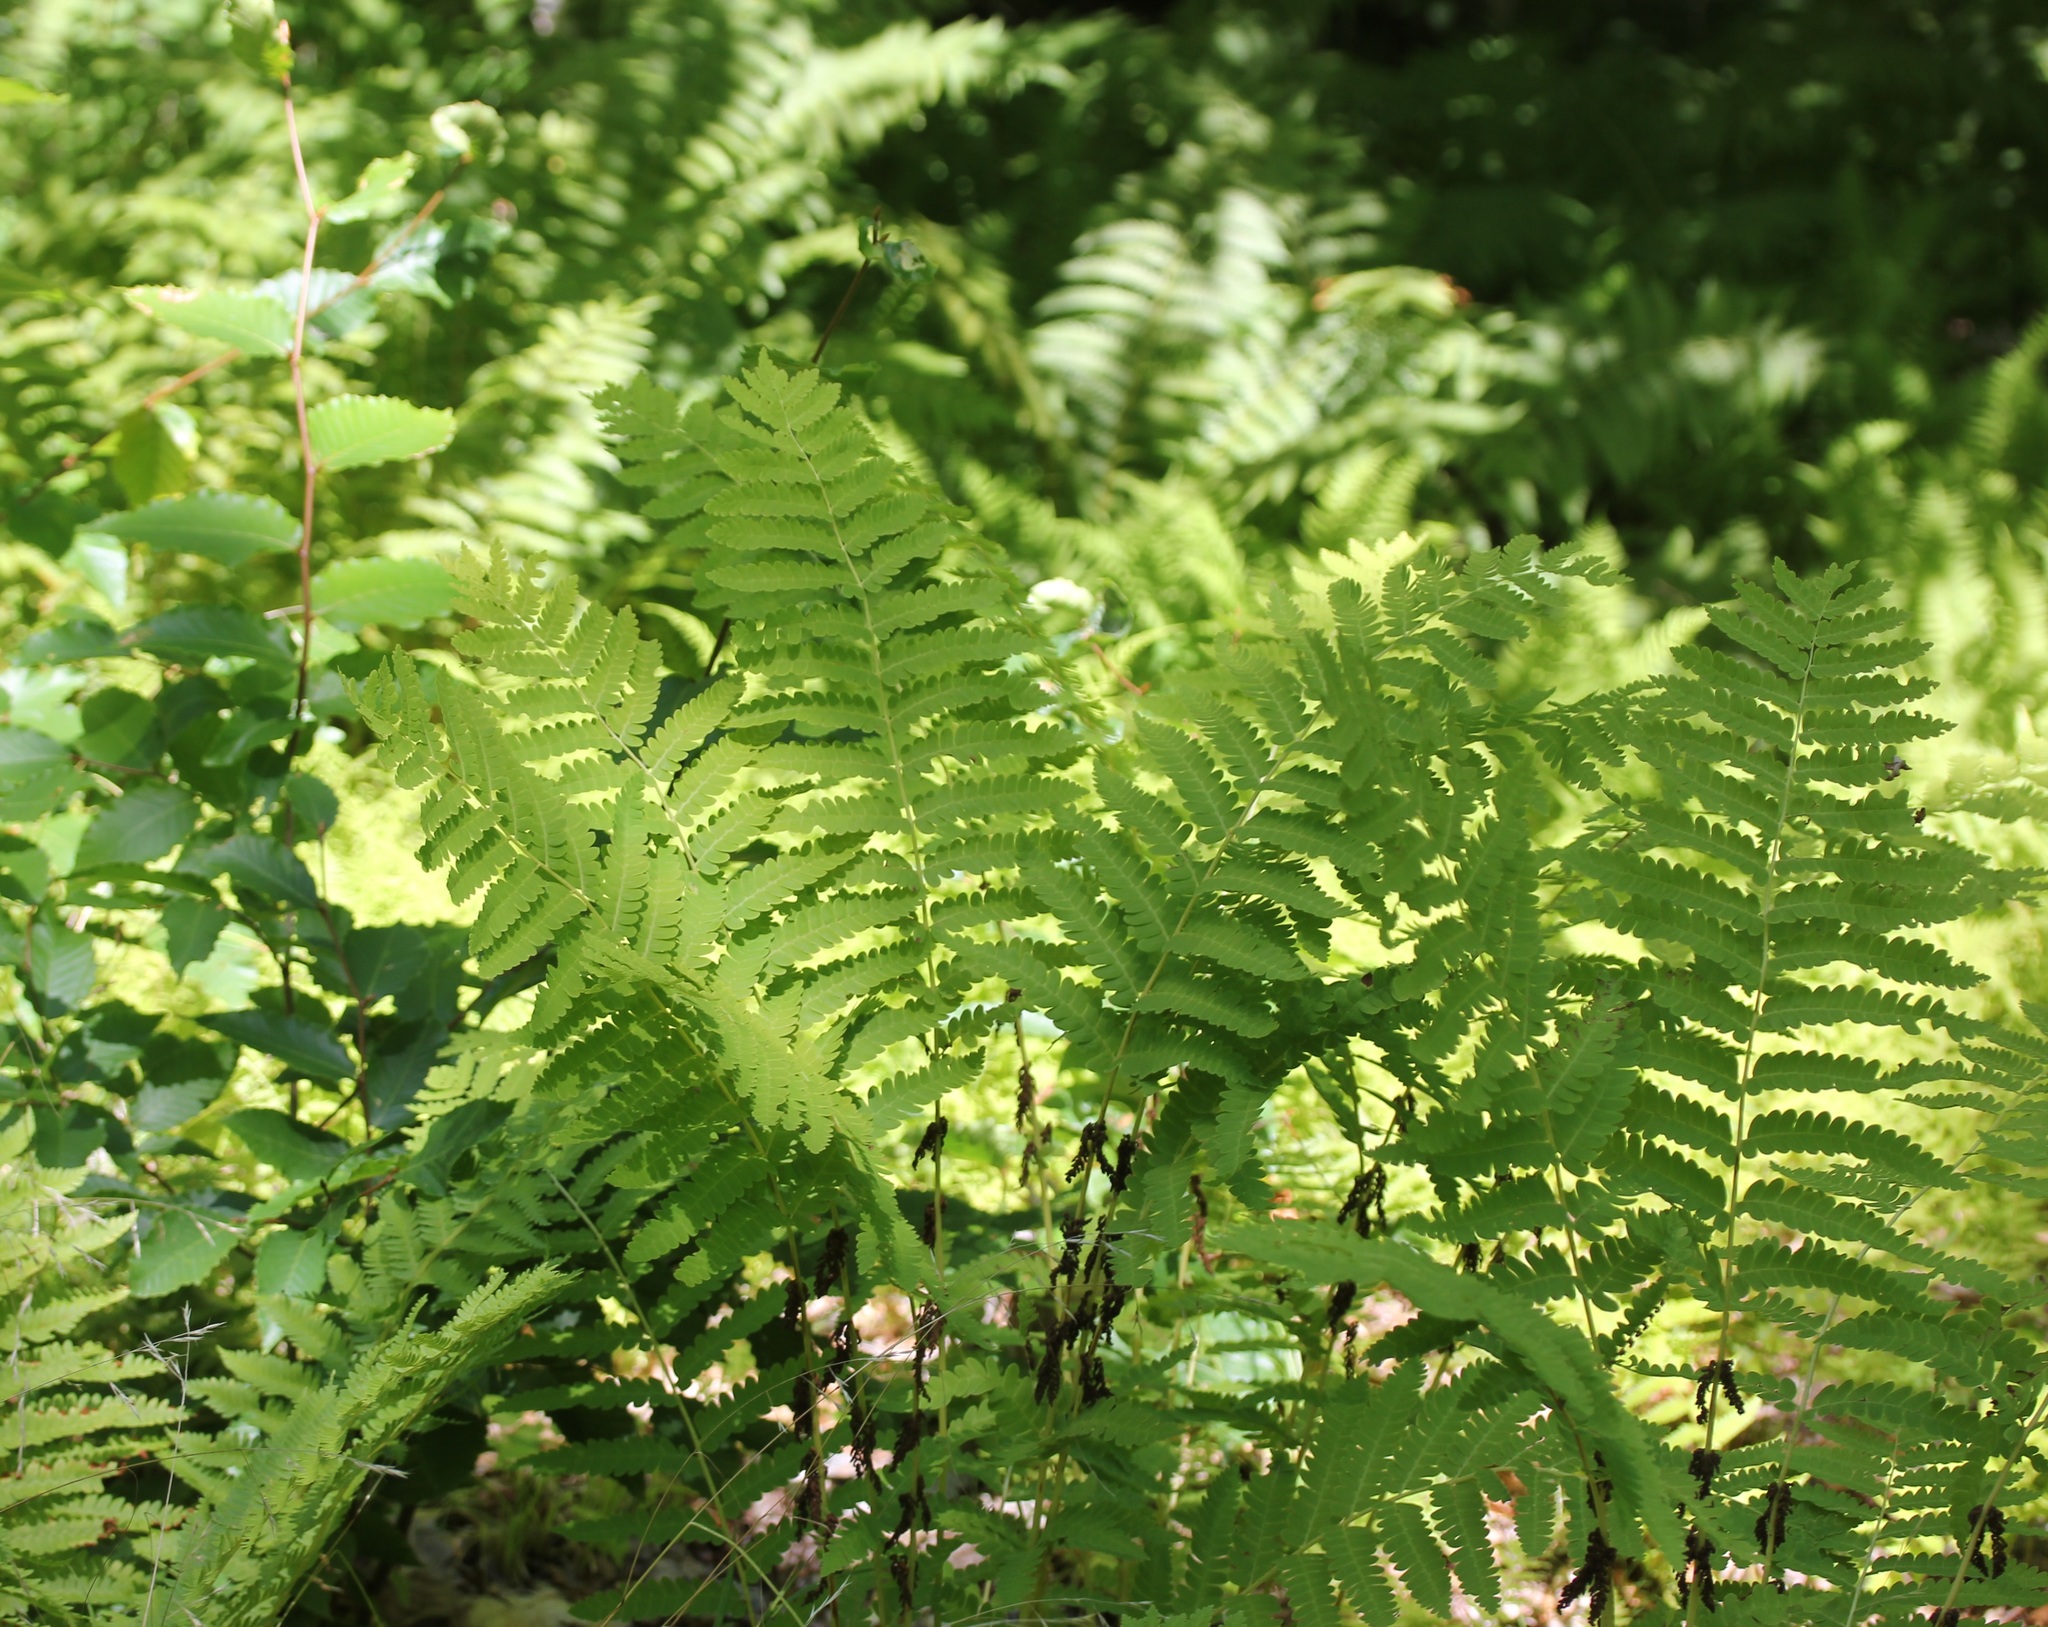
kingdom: Plantae
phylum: Tracheophyta
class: Polypodiopsida
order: Osmundales
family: Osmundaceae
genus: Claytosmunda
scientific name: Claytosmunda claytoniana
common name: Clayton's fern
